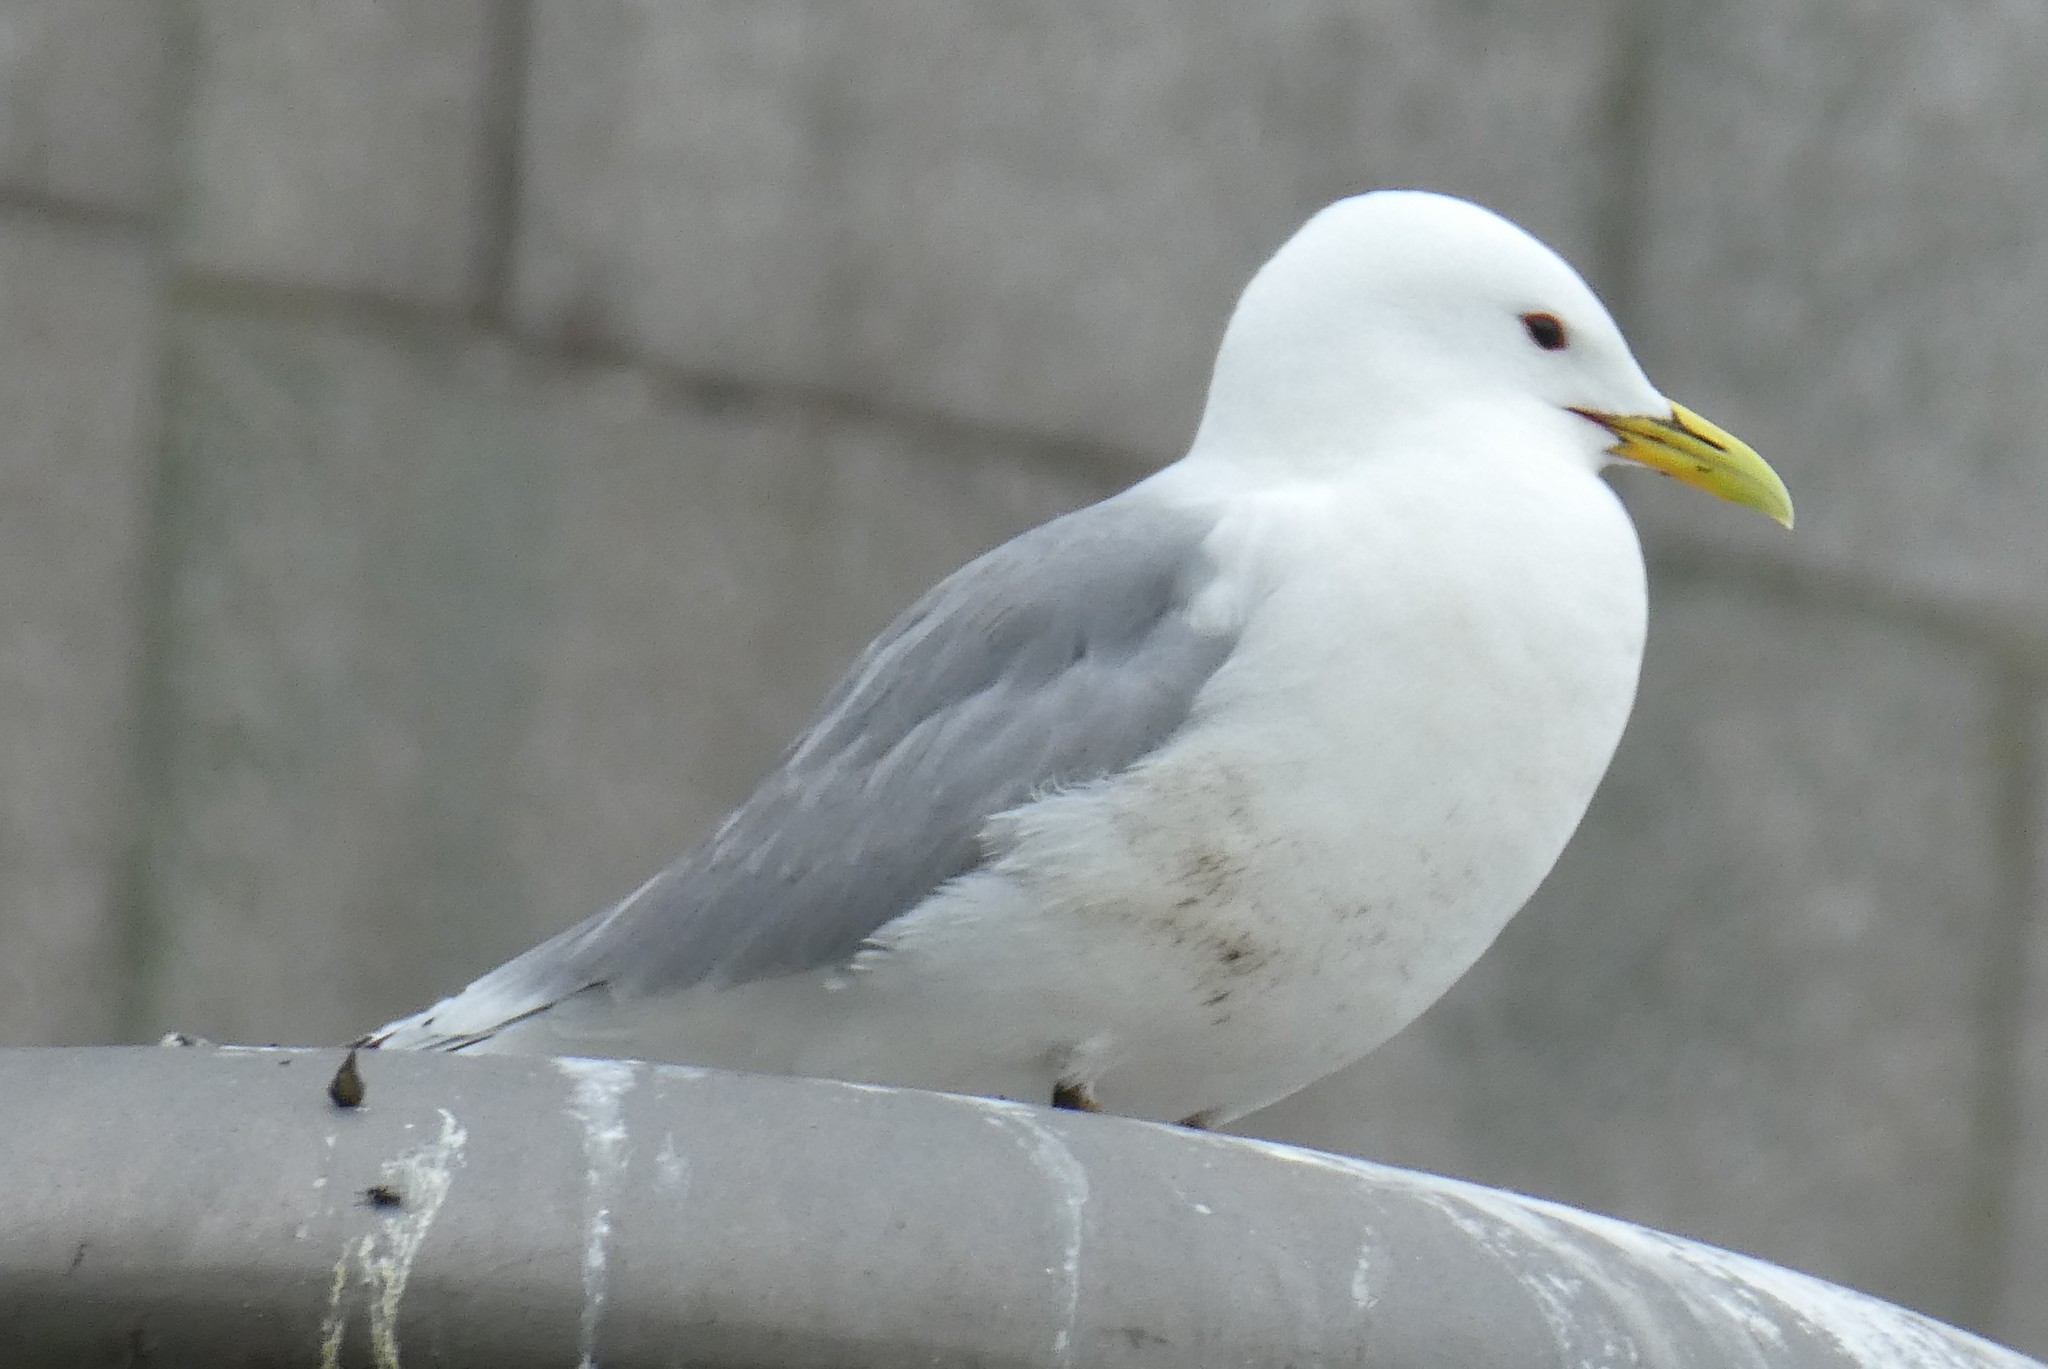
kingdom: Animalia
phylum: Chordata
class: Aves
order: Charadriiformes
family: Laridae
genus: Rissa
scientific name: Rissa tridactyla
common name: Black-legged kittiwake
